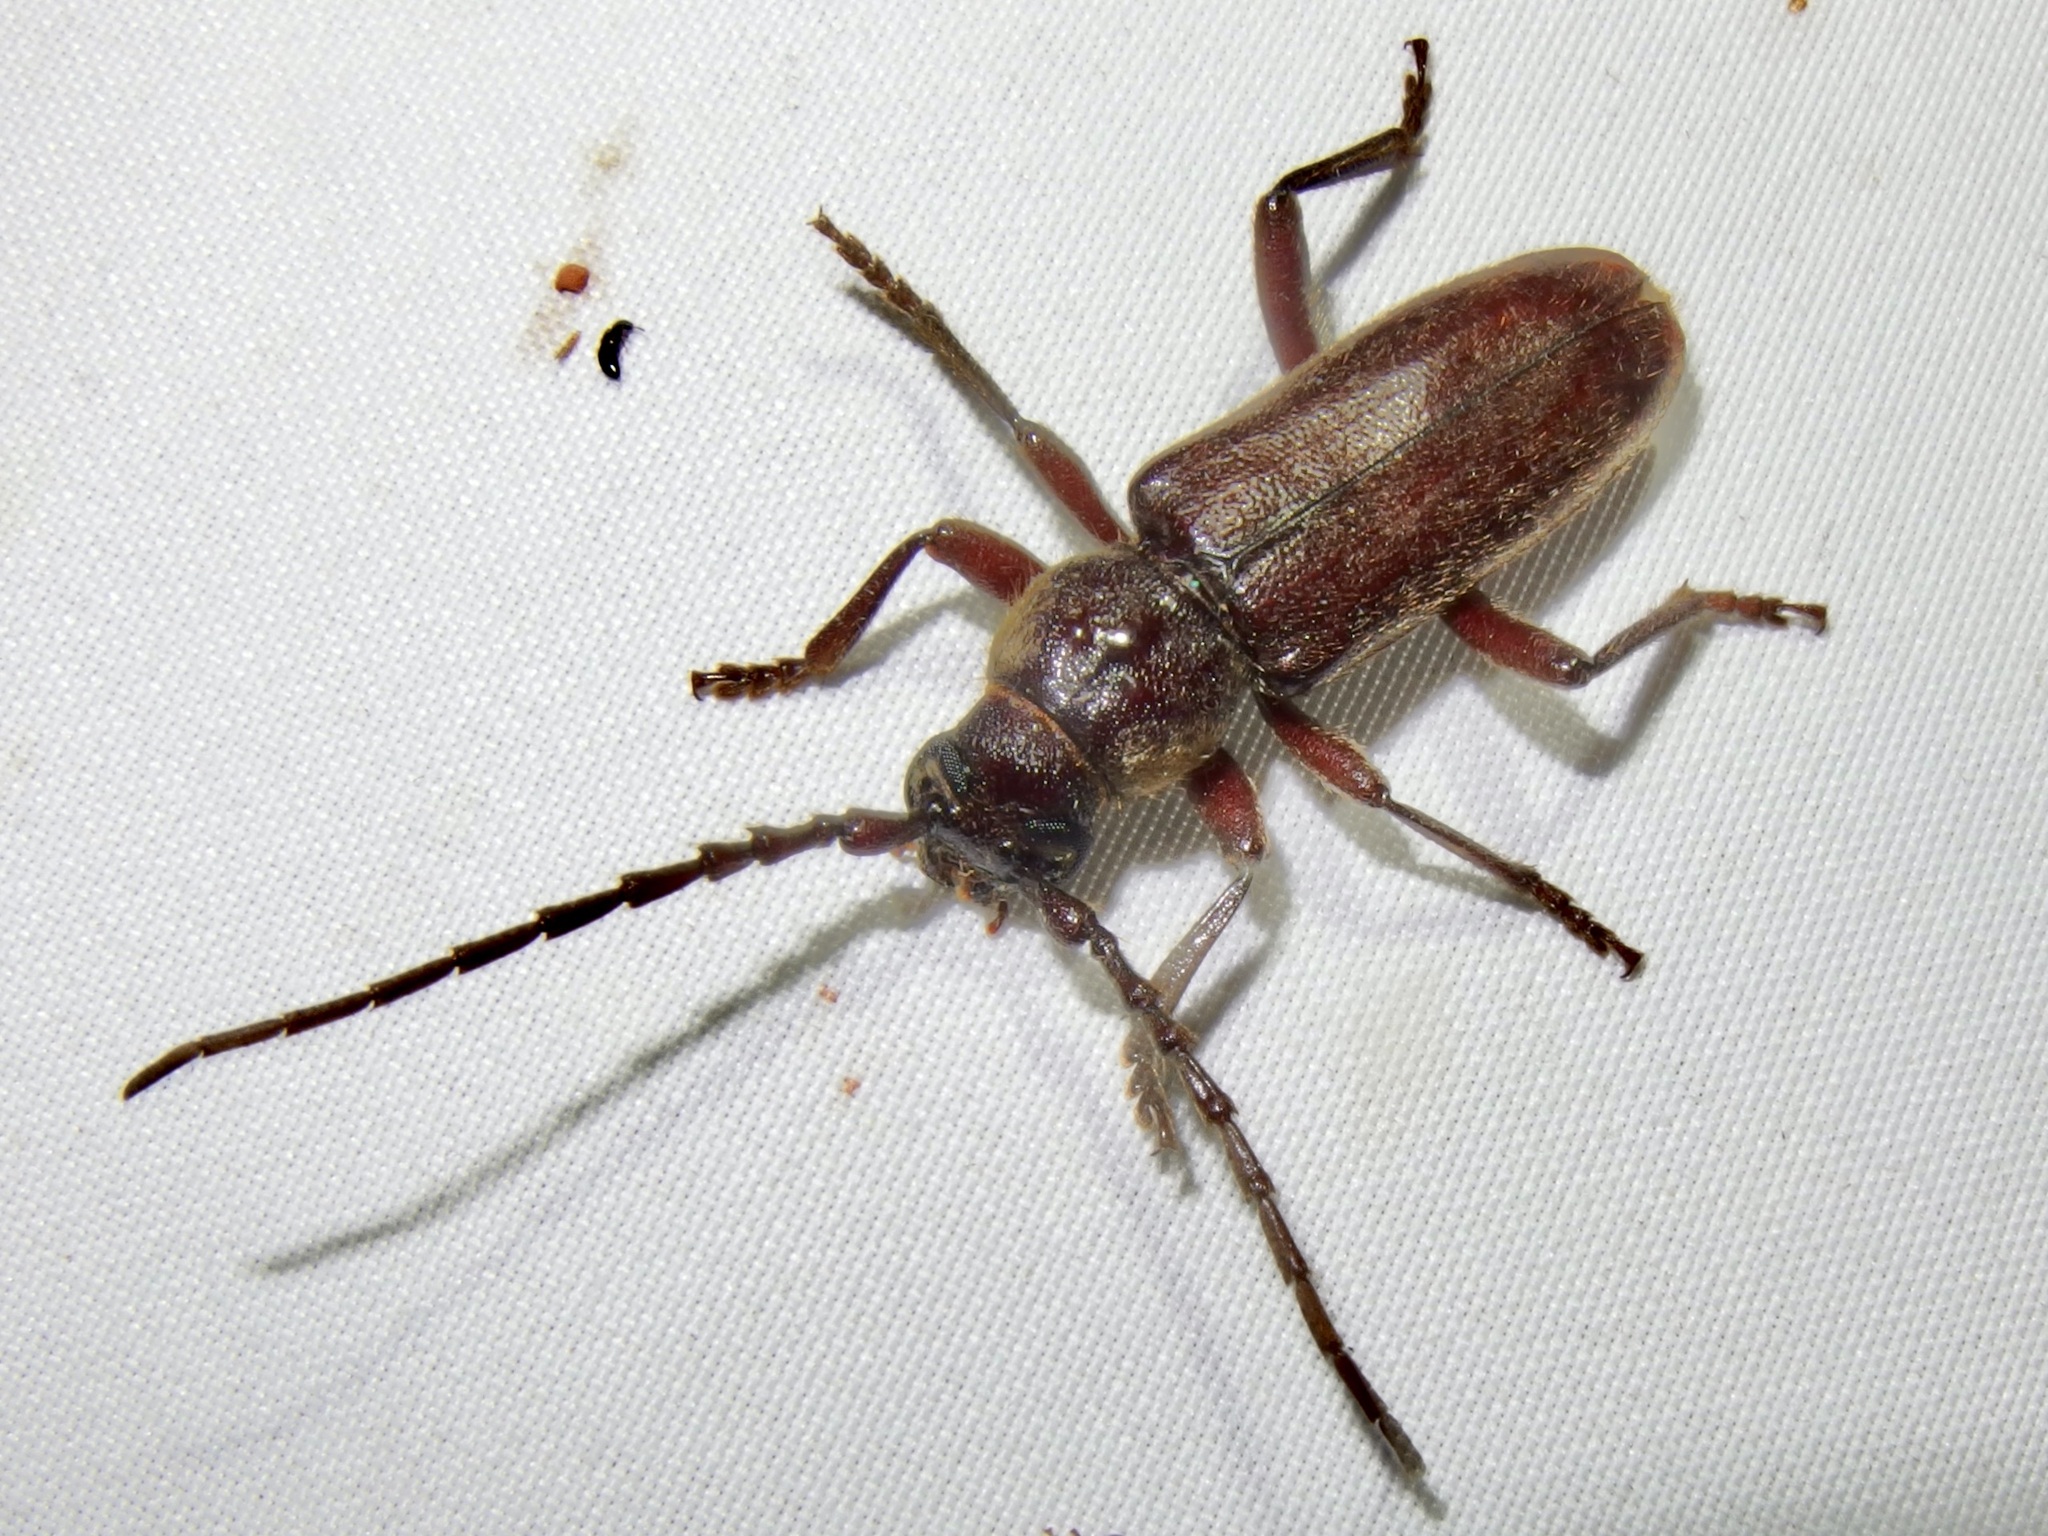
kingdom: Animalia
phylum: Arthropoda
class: Insecta
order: Coleoptera
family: Cerambycidae
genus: Eustromula
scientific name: Eustromula validum
